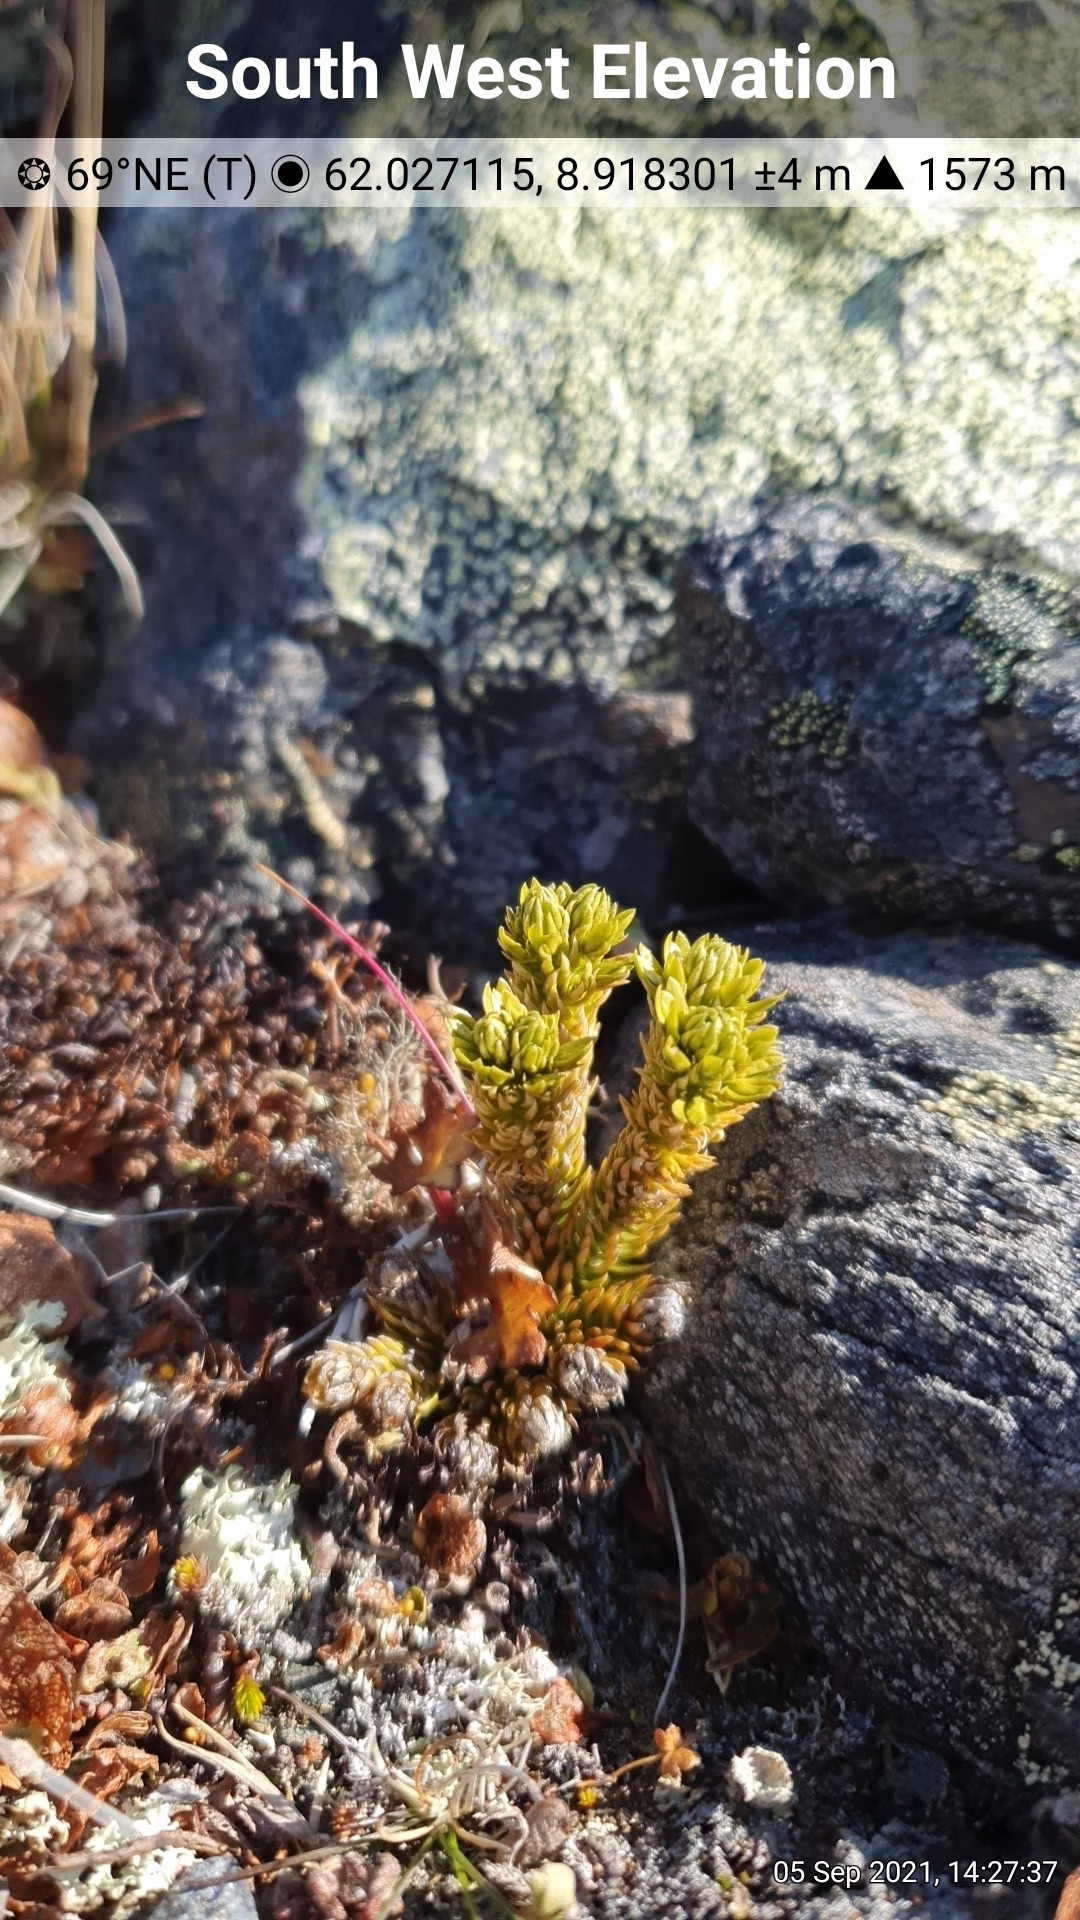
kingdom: Plantae
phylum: Tracheophyta
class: Lycopodiopsida
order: Lycopodiales
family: Lycopodiaceae
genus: Huperzia
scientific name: Huperzia selago
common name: Northern firmoss
